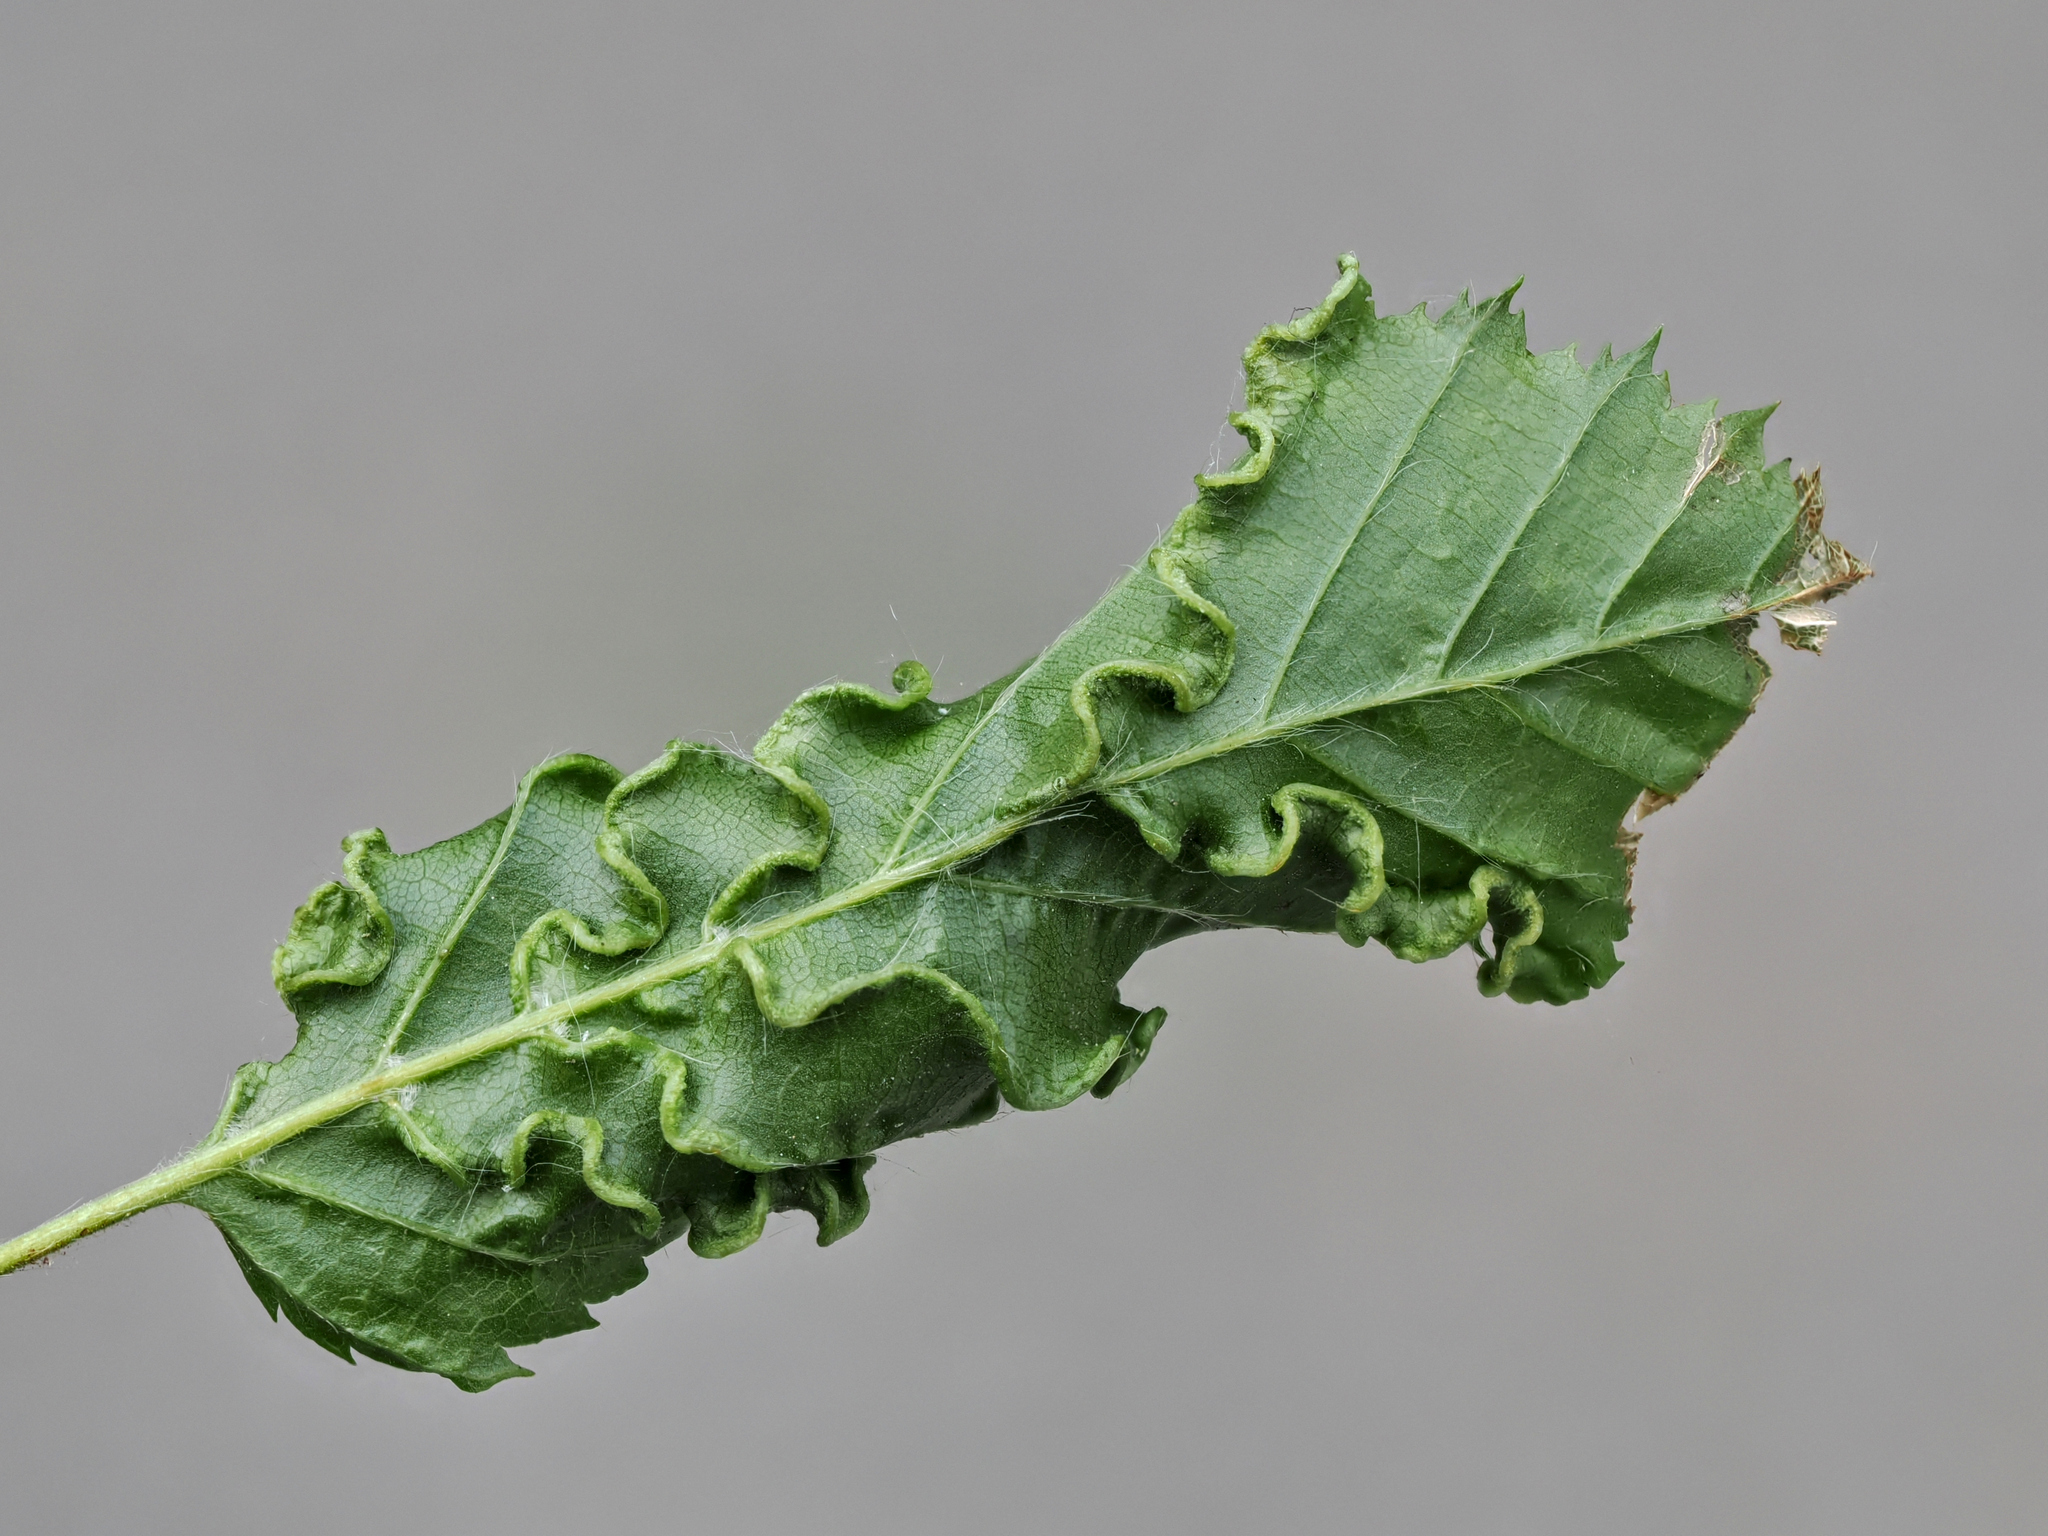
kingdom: Animalia
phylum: Arthropoda
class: Arachnida
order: Trombidiformes
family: Eriophyidae
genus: Aculops
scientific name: Aculops macrotrichus
